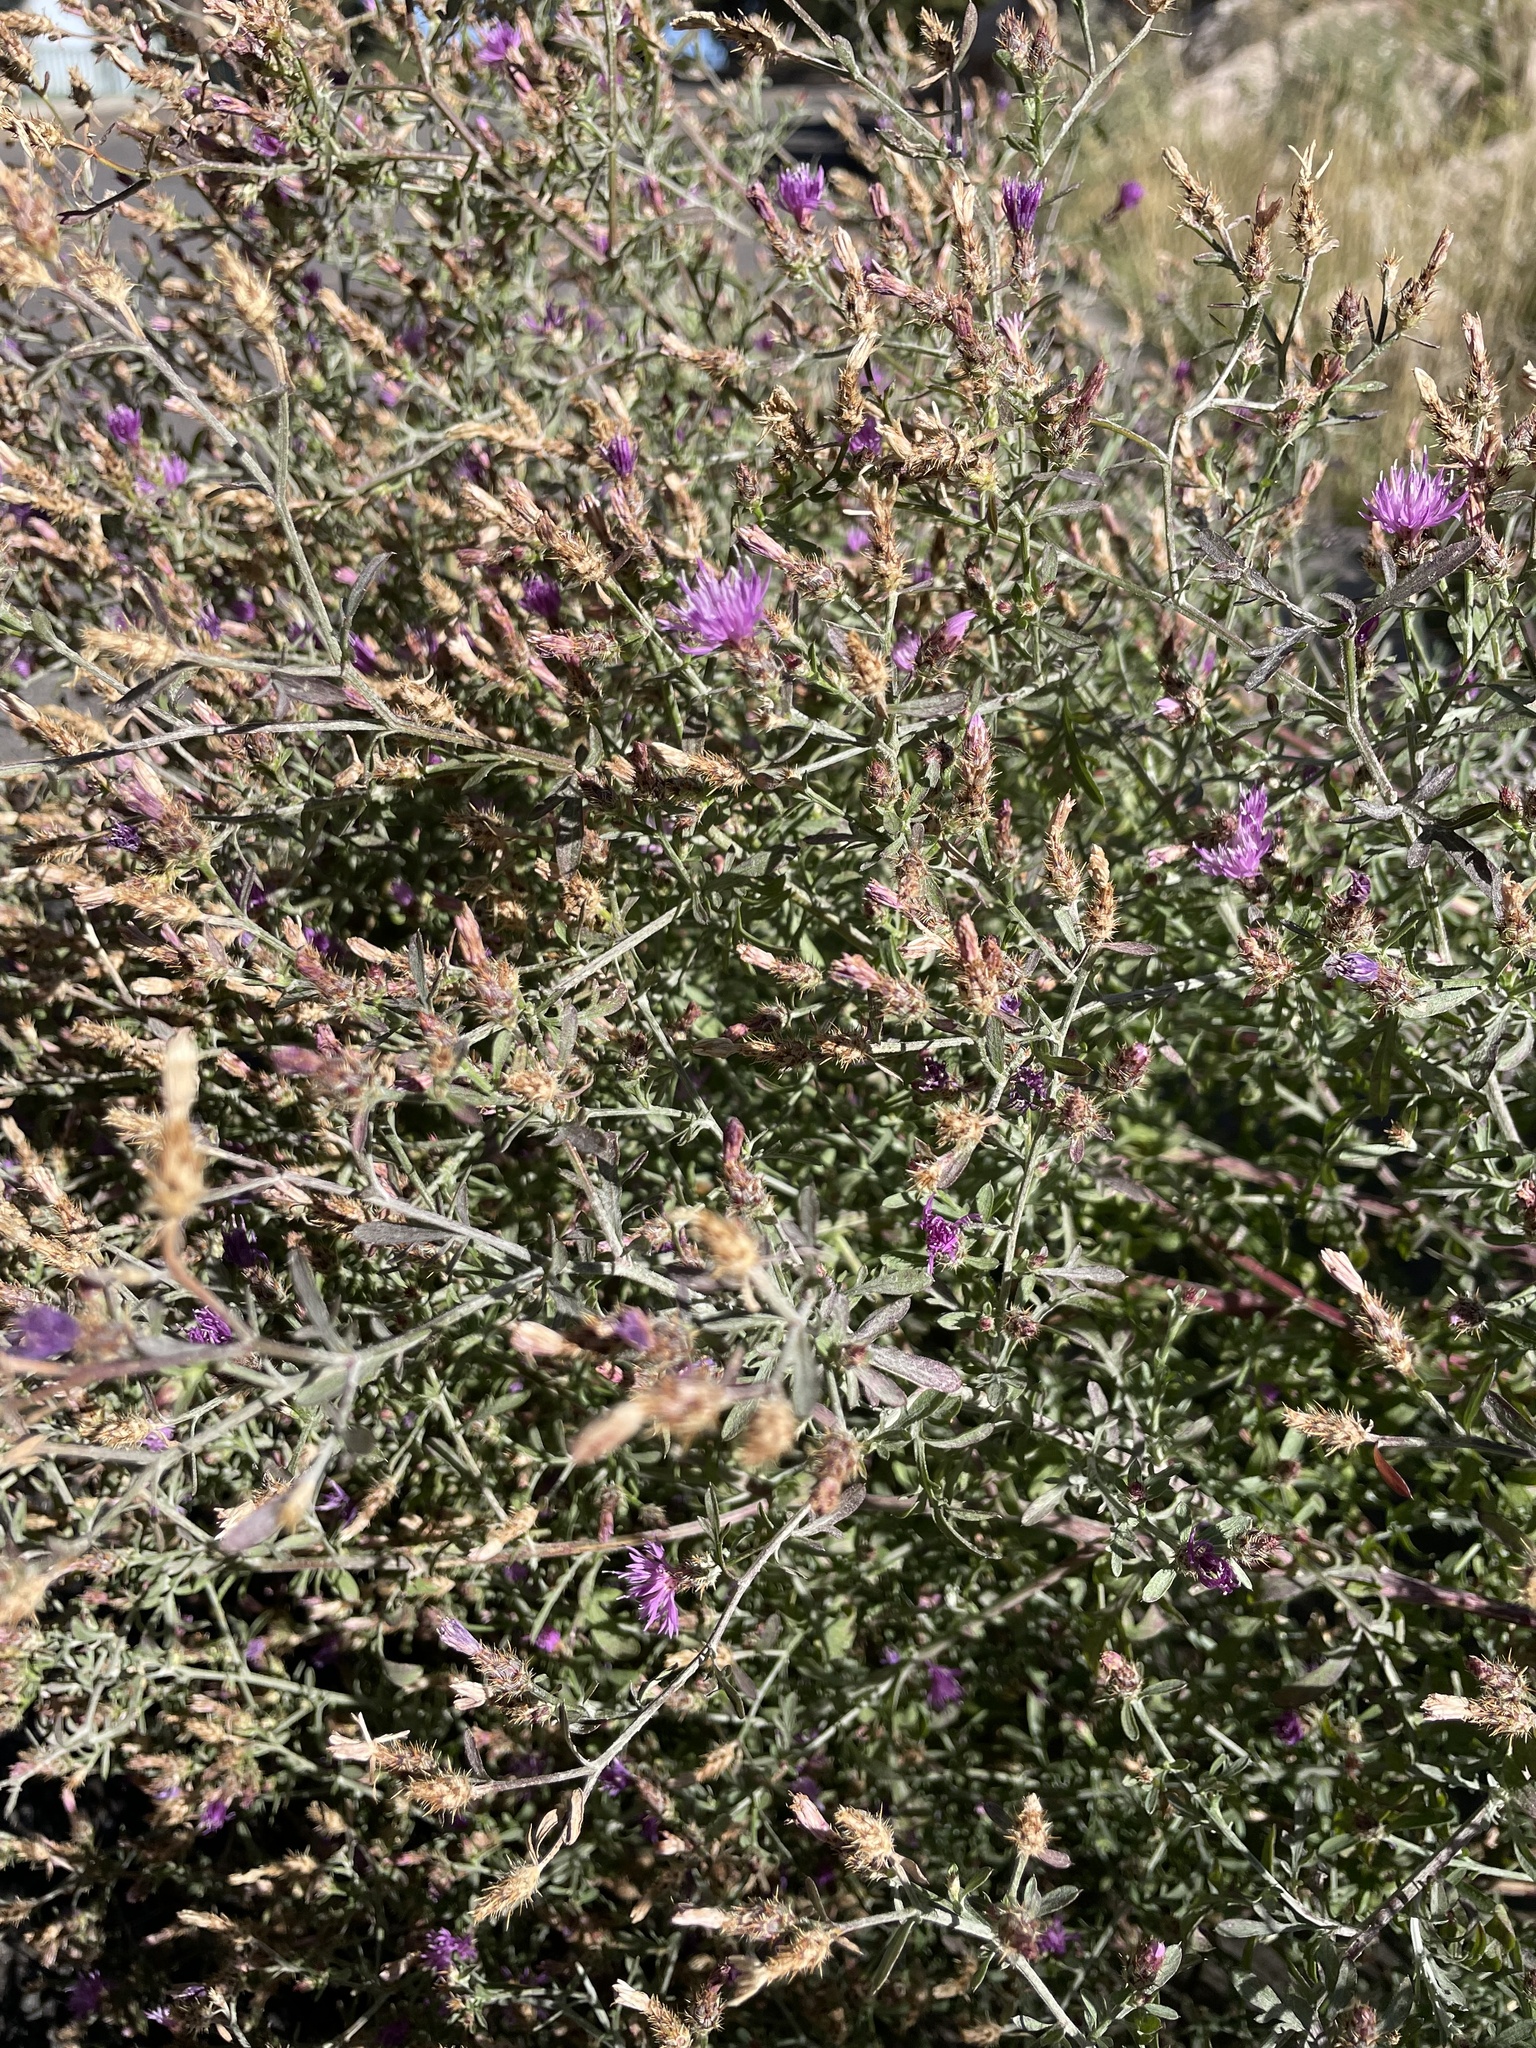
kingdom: Plantae
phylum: Tracheophyta
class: Magnoliopsida
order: Asterales
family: Asteraceae
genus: Centaurea
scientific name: Centaurea diffusa
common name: Diffuse knapweed
